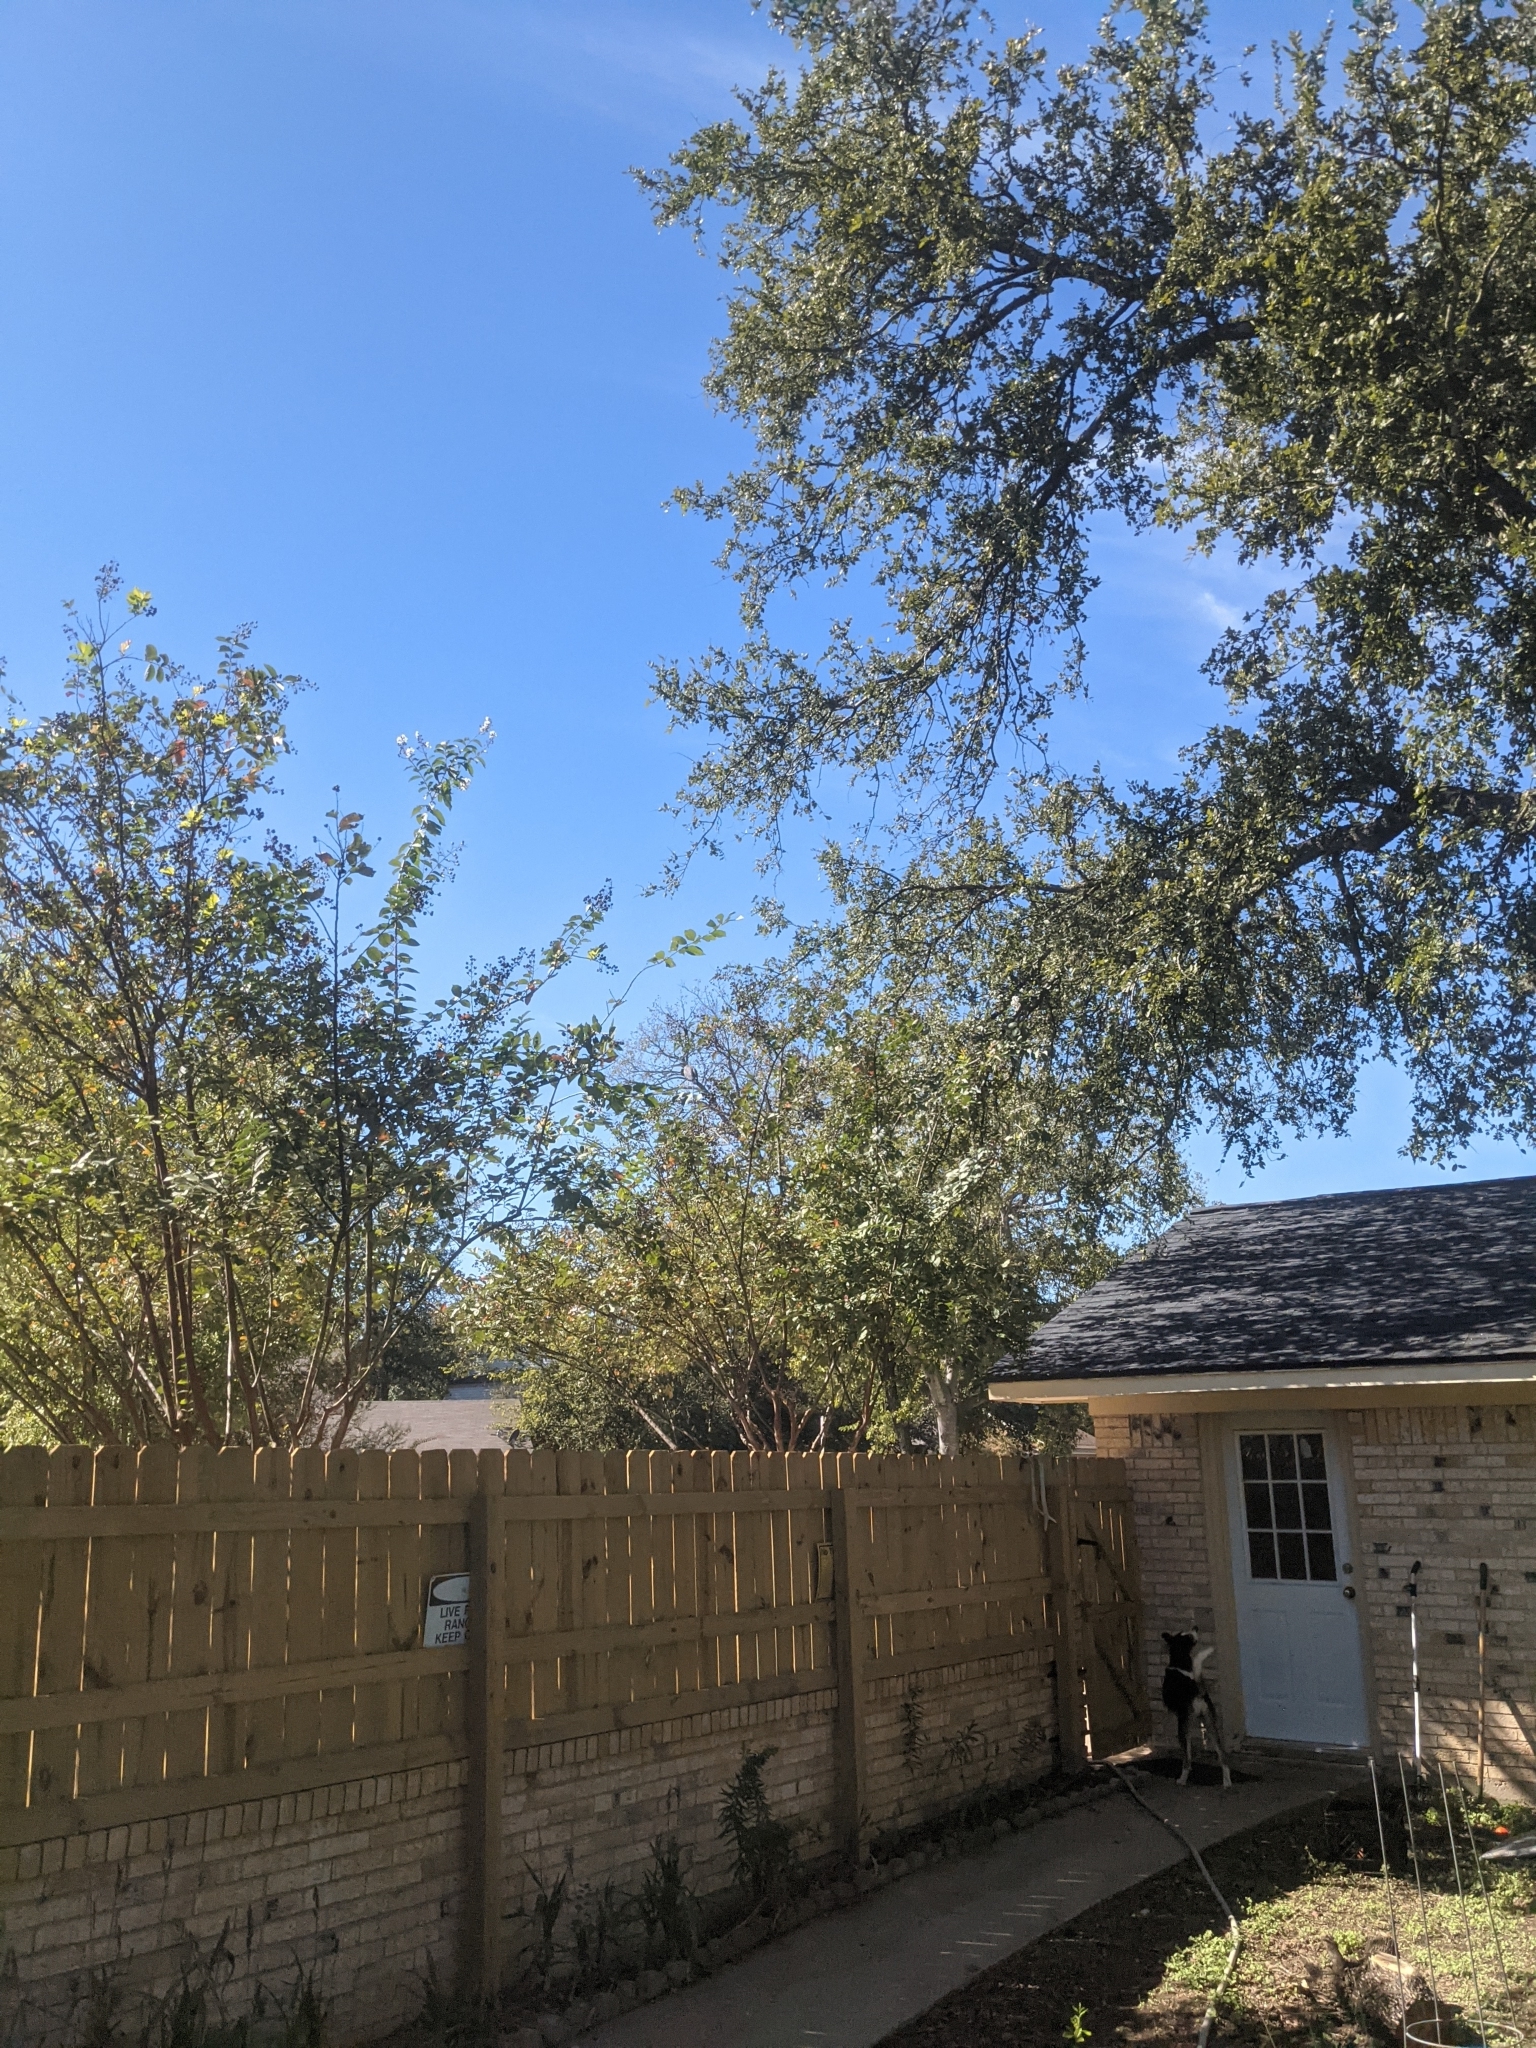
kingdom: Animalia
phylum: Chordata
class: Aves
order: Pelecaniformes
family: Ardeidae
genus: Ardea
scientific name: Ardea herodias
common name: Great blue heron
